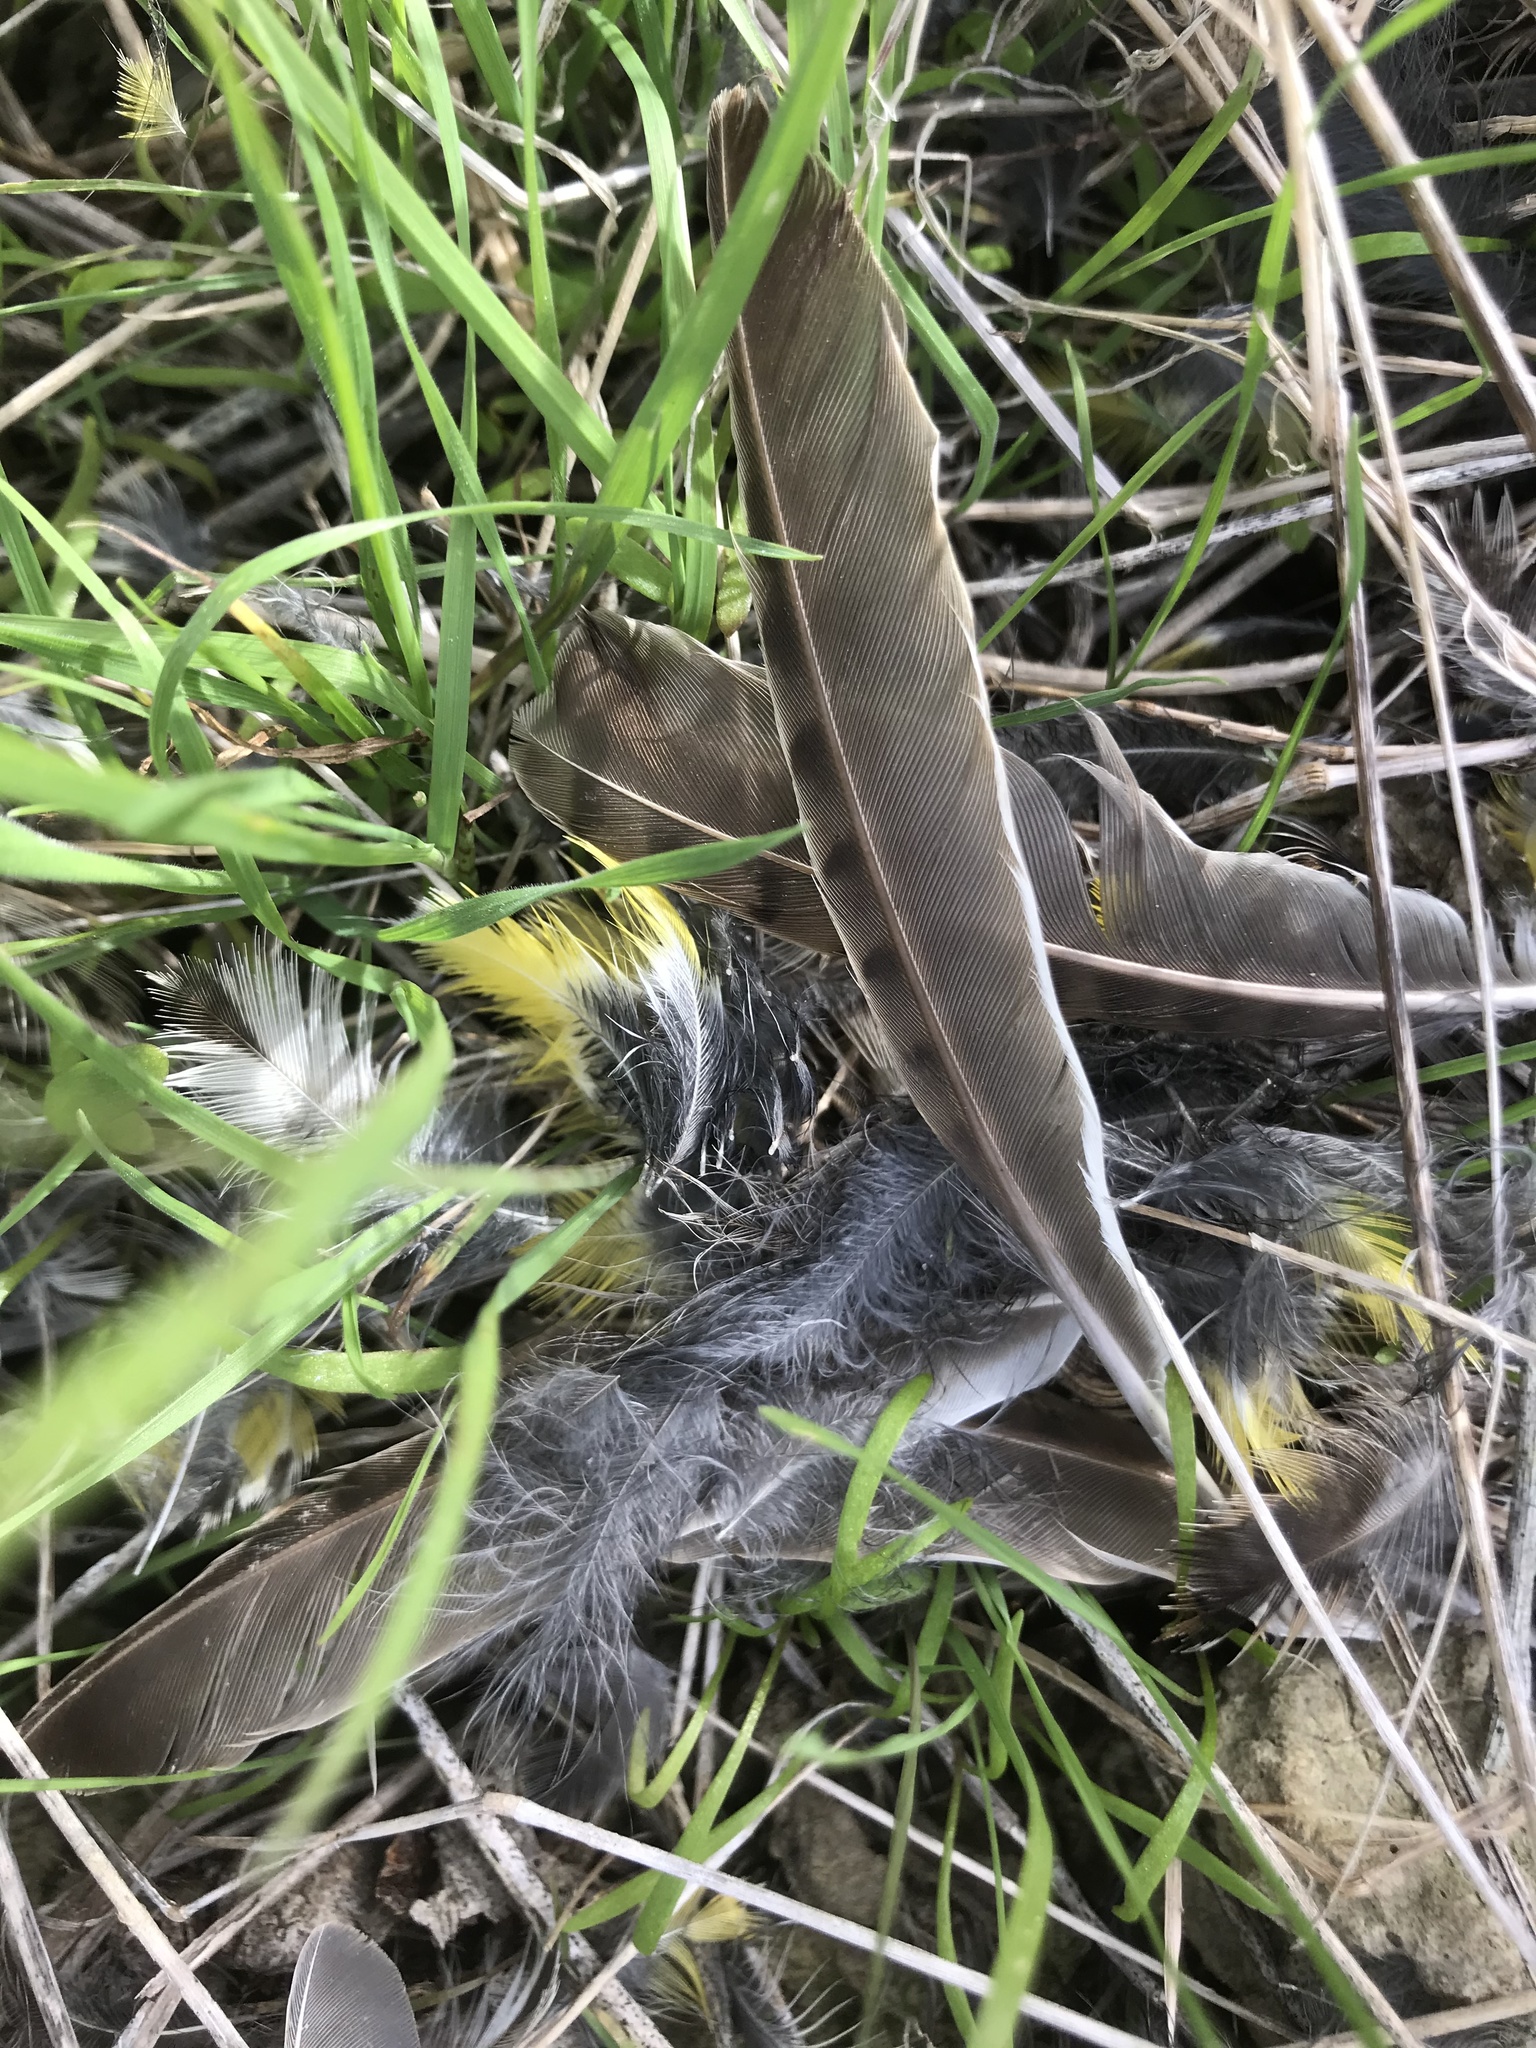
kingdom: Animalia
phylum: Chordata
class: Aves
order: Passeriformes
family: Icteridae
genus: Sturnella
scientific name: Sturnella neglecta
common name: Western meadowlark
